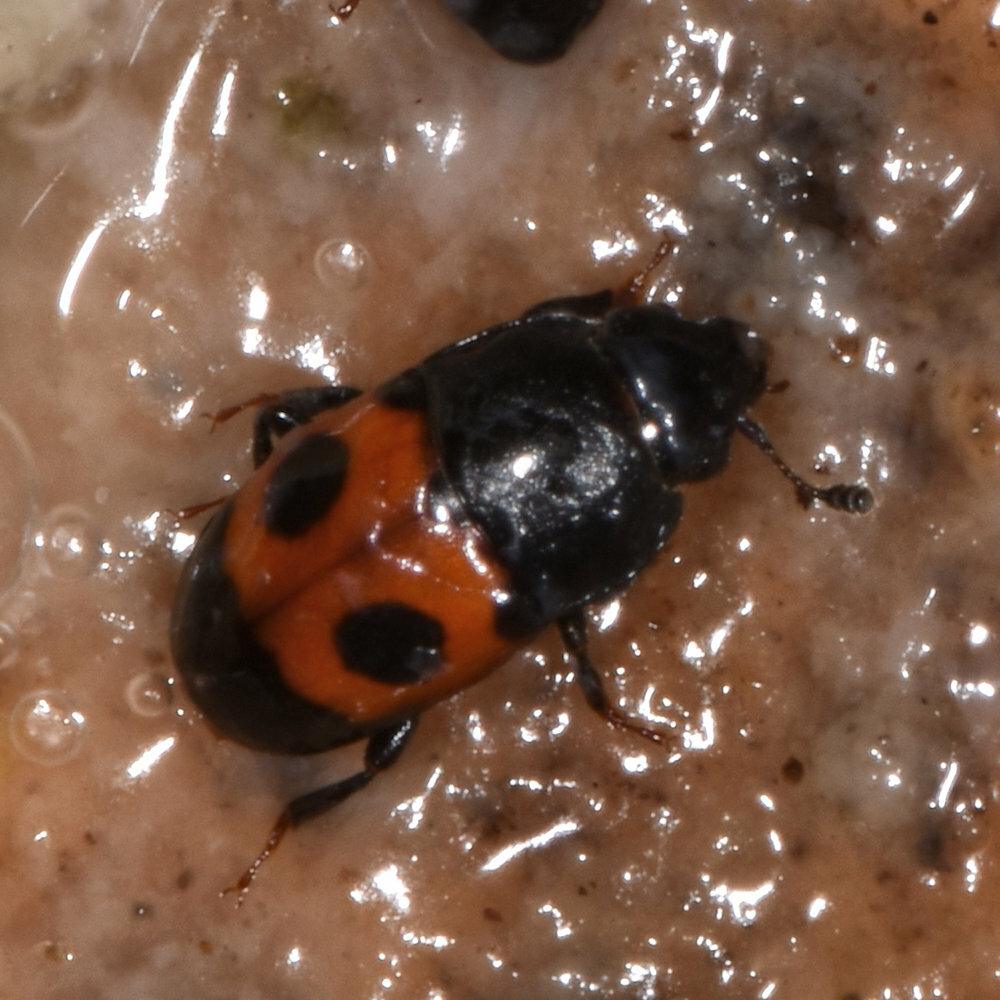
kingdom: Animalia
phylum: Arthropoda
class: Insecta
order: Coleoptera
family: Nitidulidae
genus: Glischrochilus
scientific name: Glischrochilus sanguinolentus
